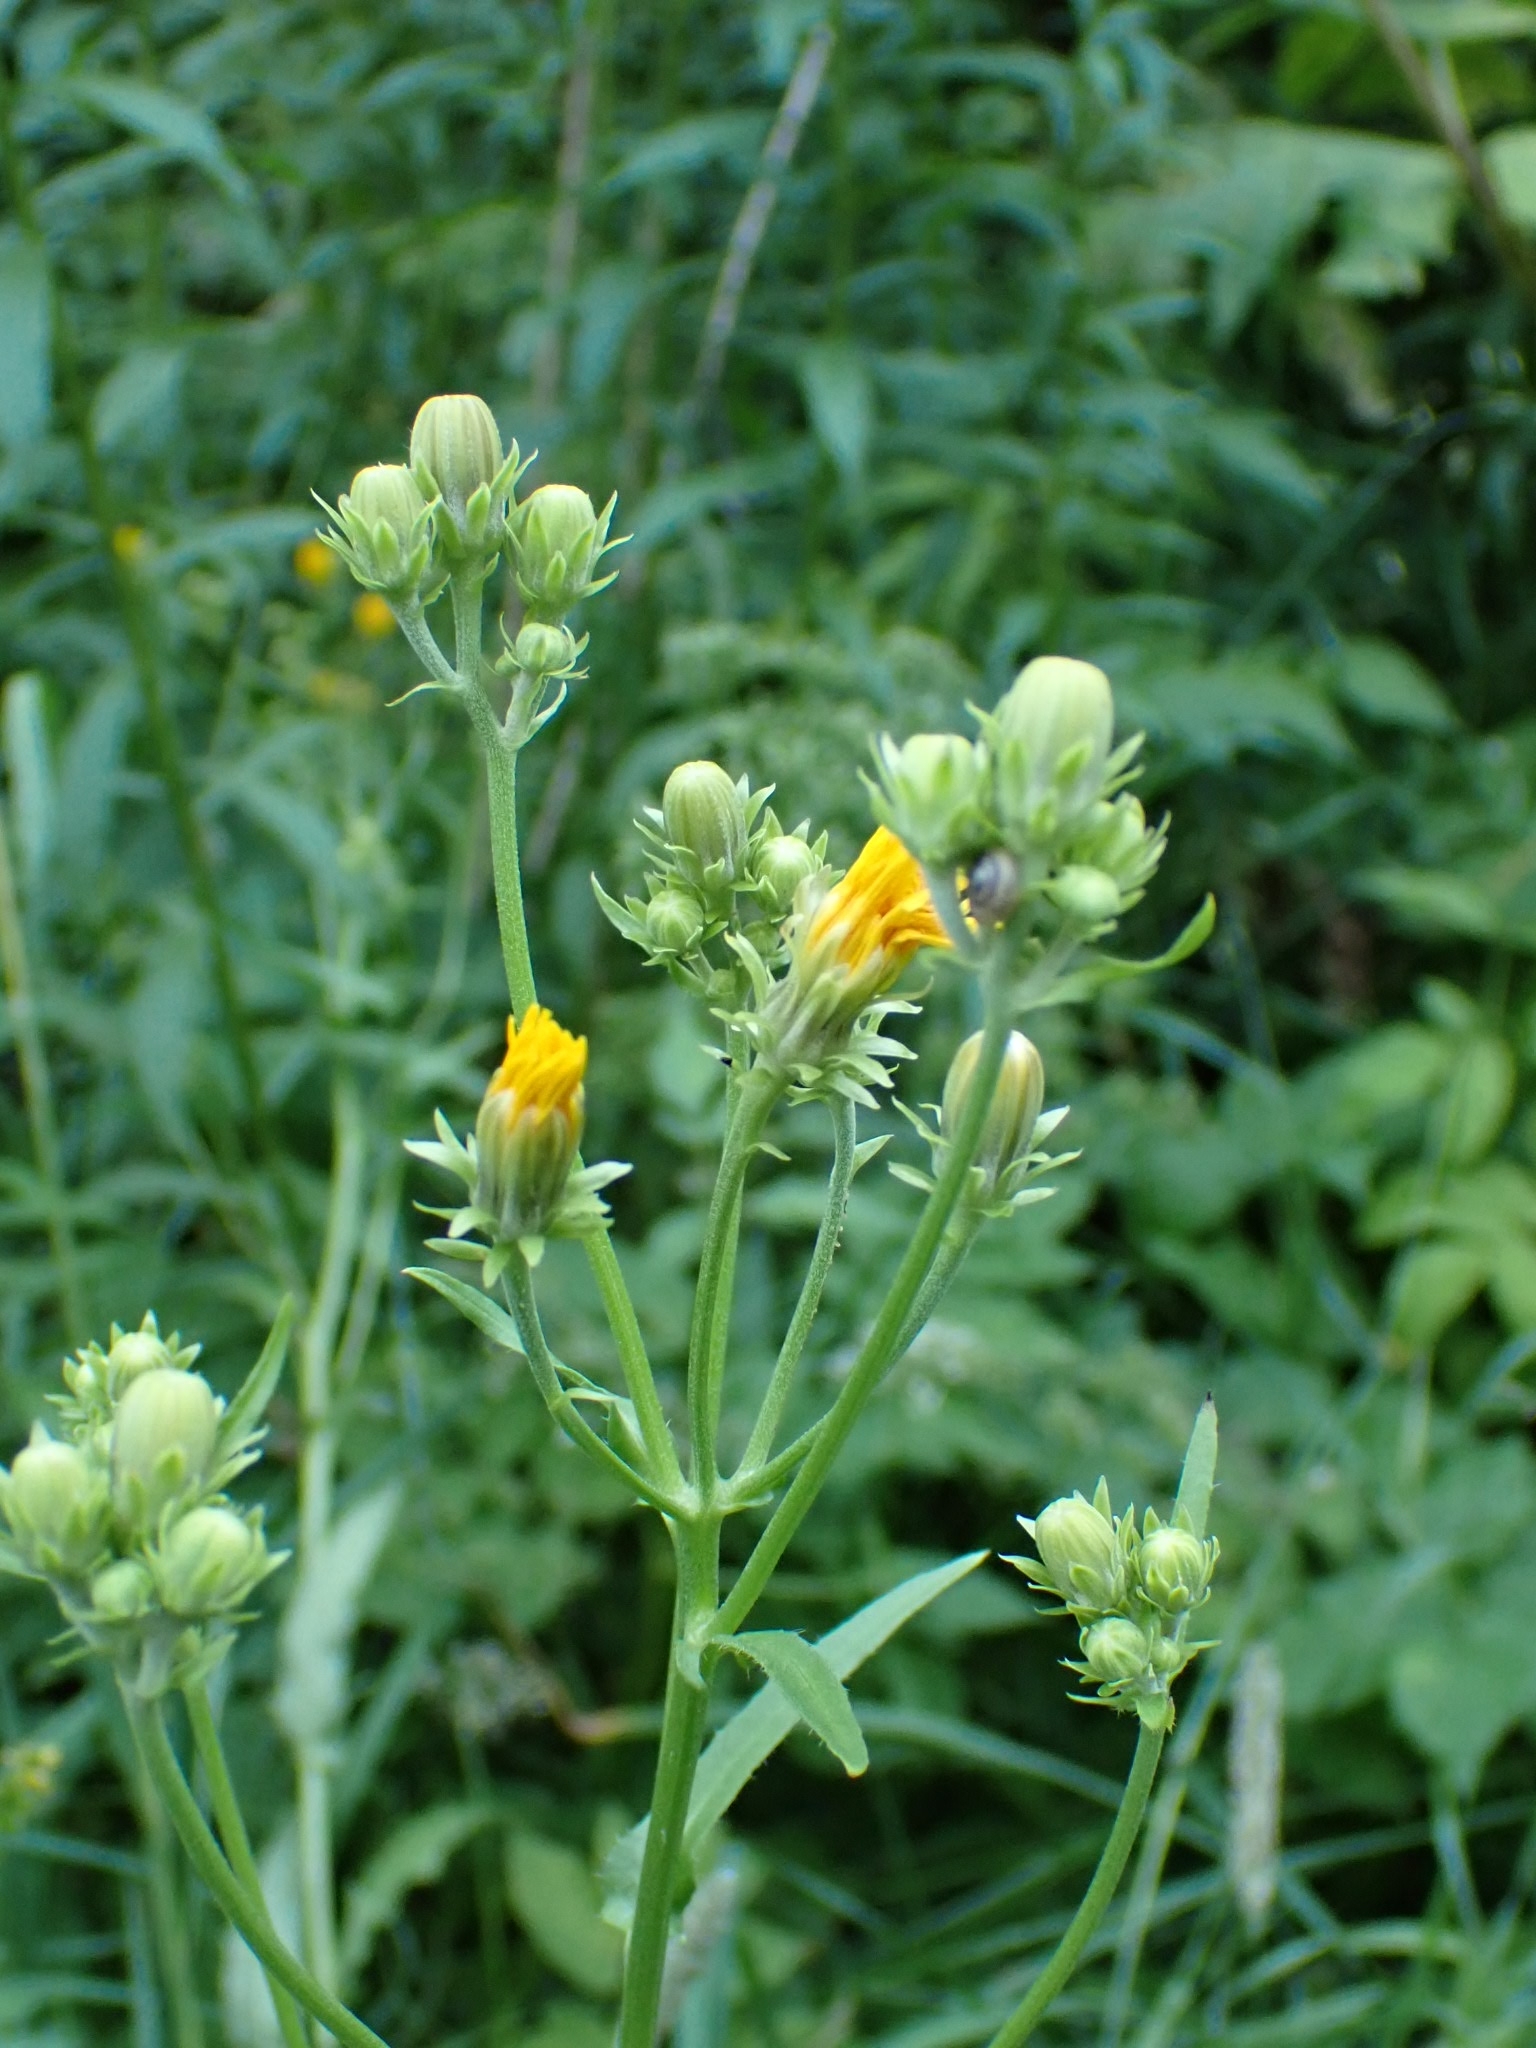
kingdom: Plantae
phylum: Tracheophyta
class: Magnoliopsida
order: Asterales
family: Asteraceae
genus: Picris
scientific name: Picris hieracioides
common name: Hawkweed oxtongue
